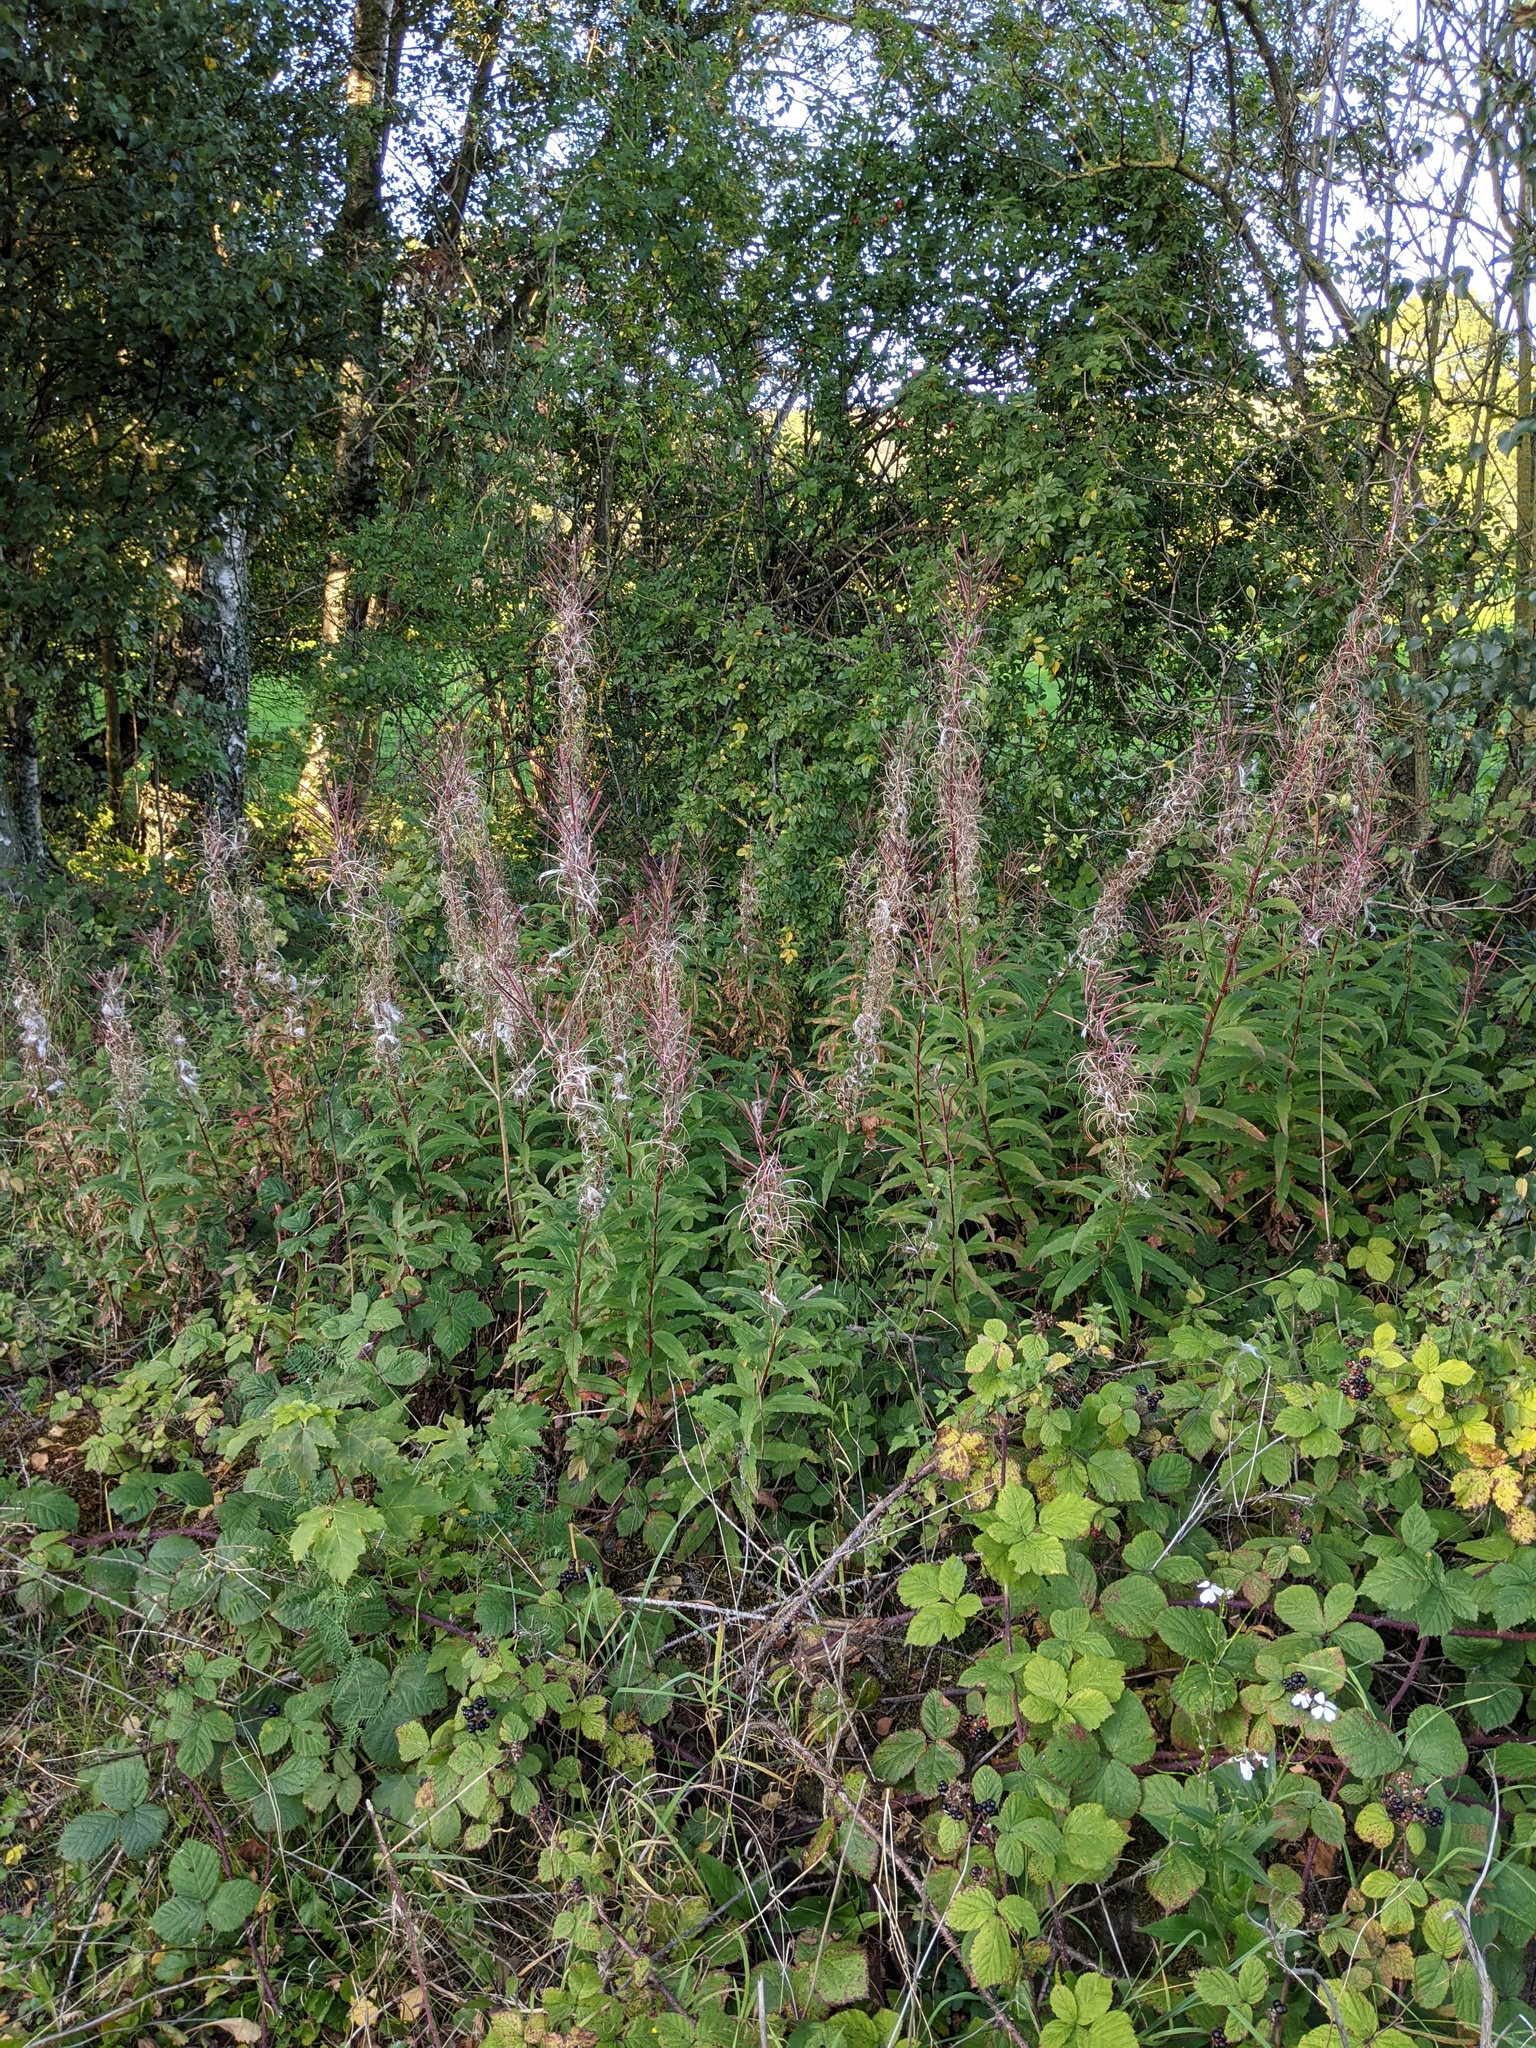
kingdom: Plantae
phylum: Tracheophyta
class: Magnoliopsida
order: Myrtales
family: Onagraceae
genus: Chamaenerion
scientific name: Chamaenerion angustifolium
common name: Fireweed
